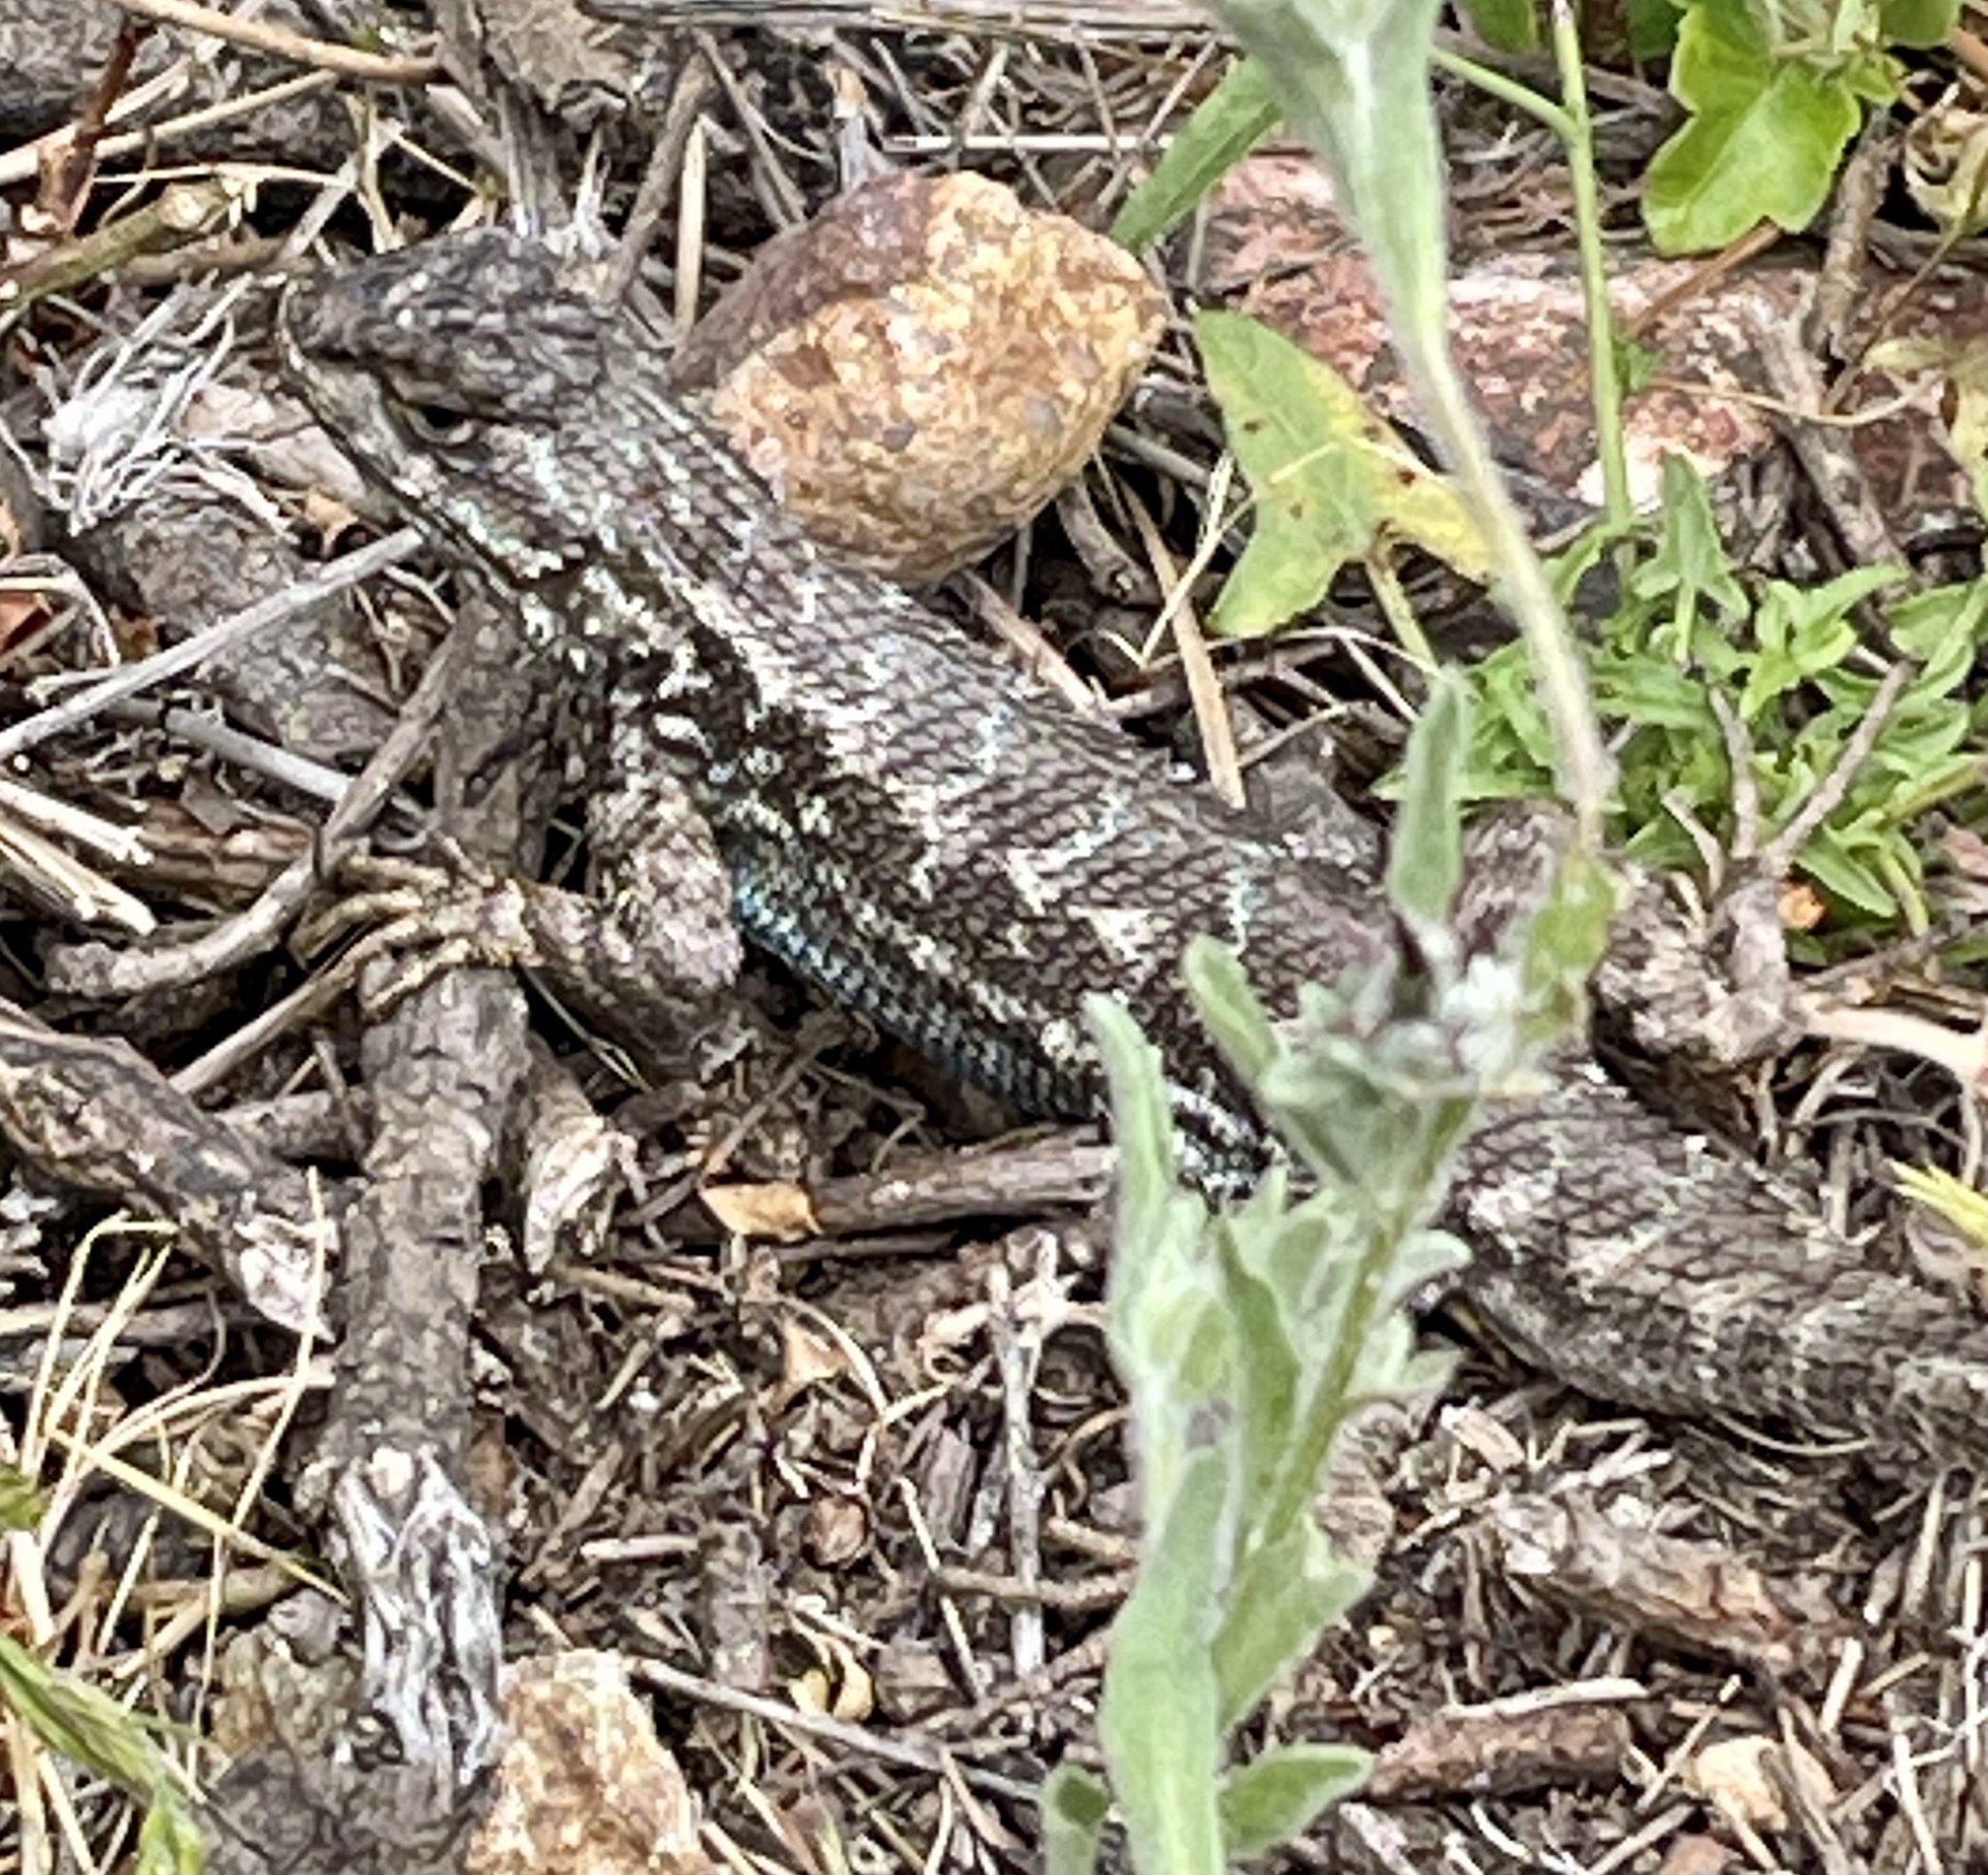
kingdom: Animalia
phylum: Chordata
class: Squamata
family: Phrynosomatidae
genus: Sceloporus
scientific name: Sceloporus occidentalis
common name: Western fence lizard
